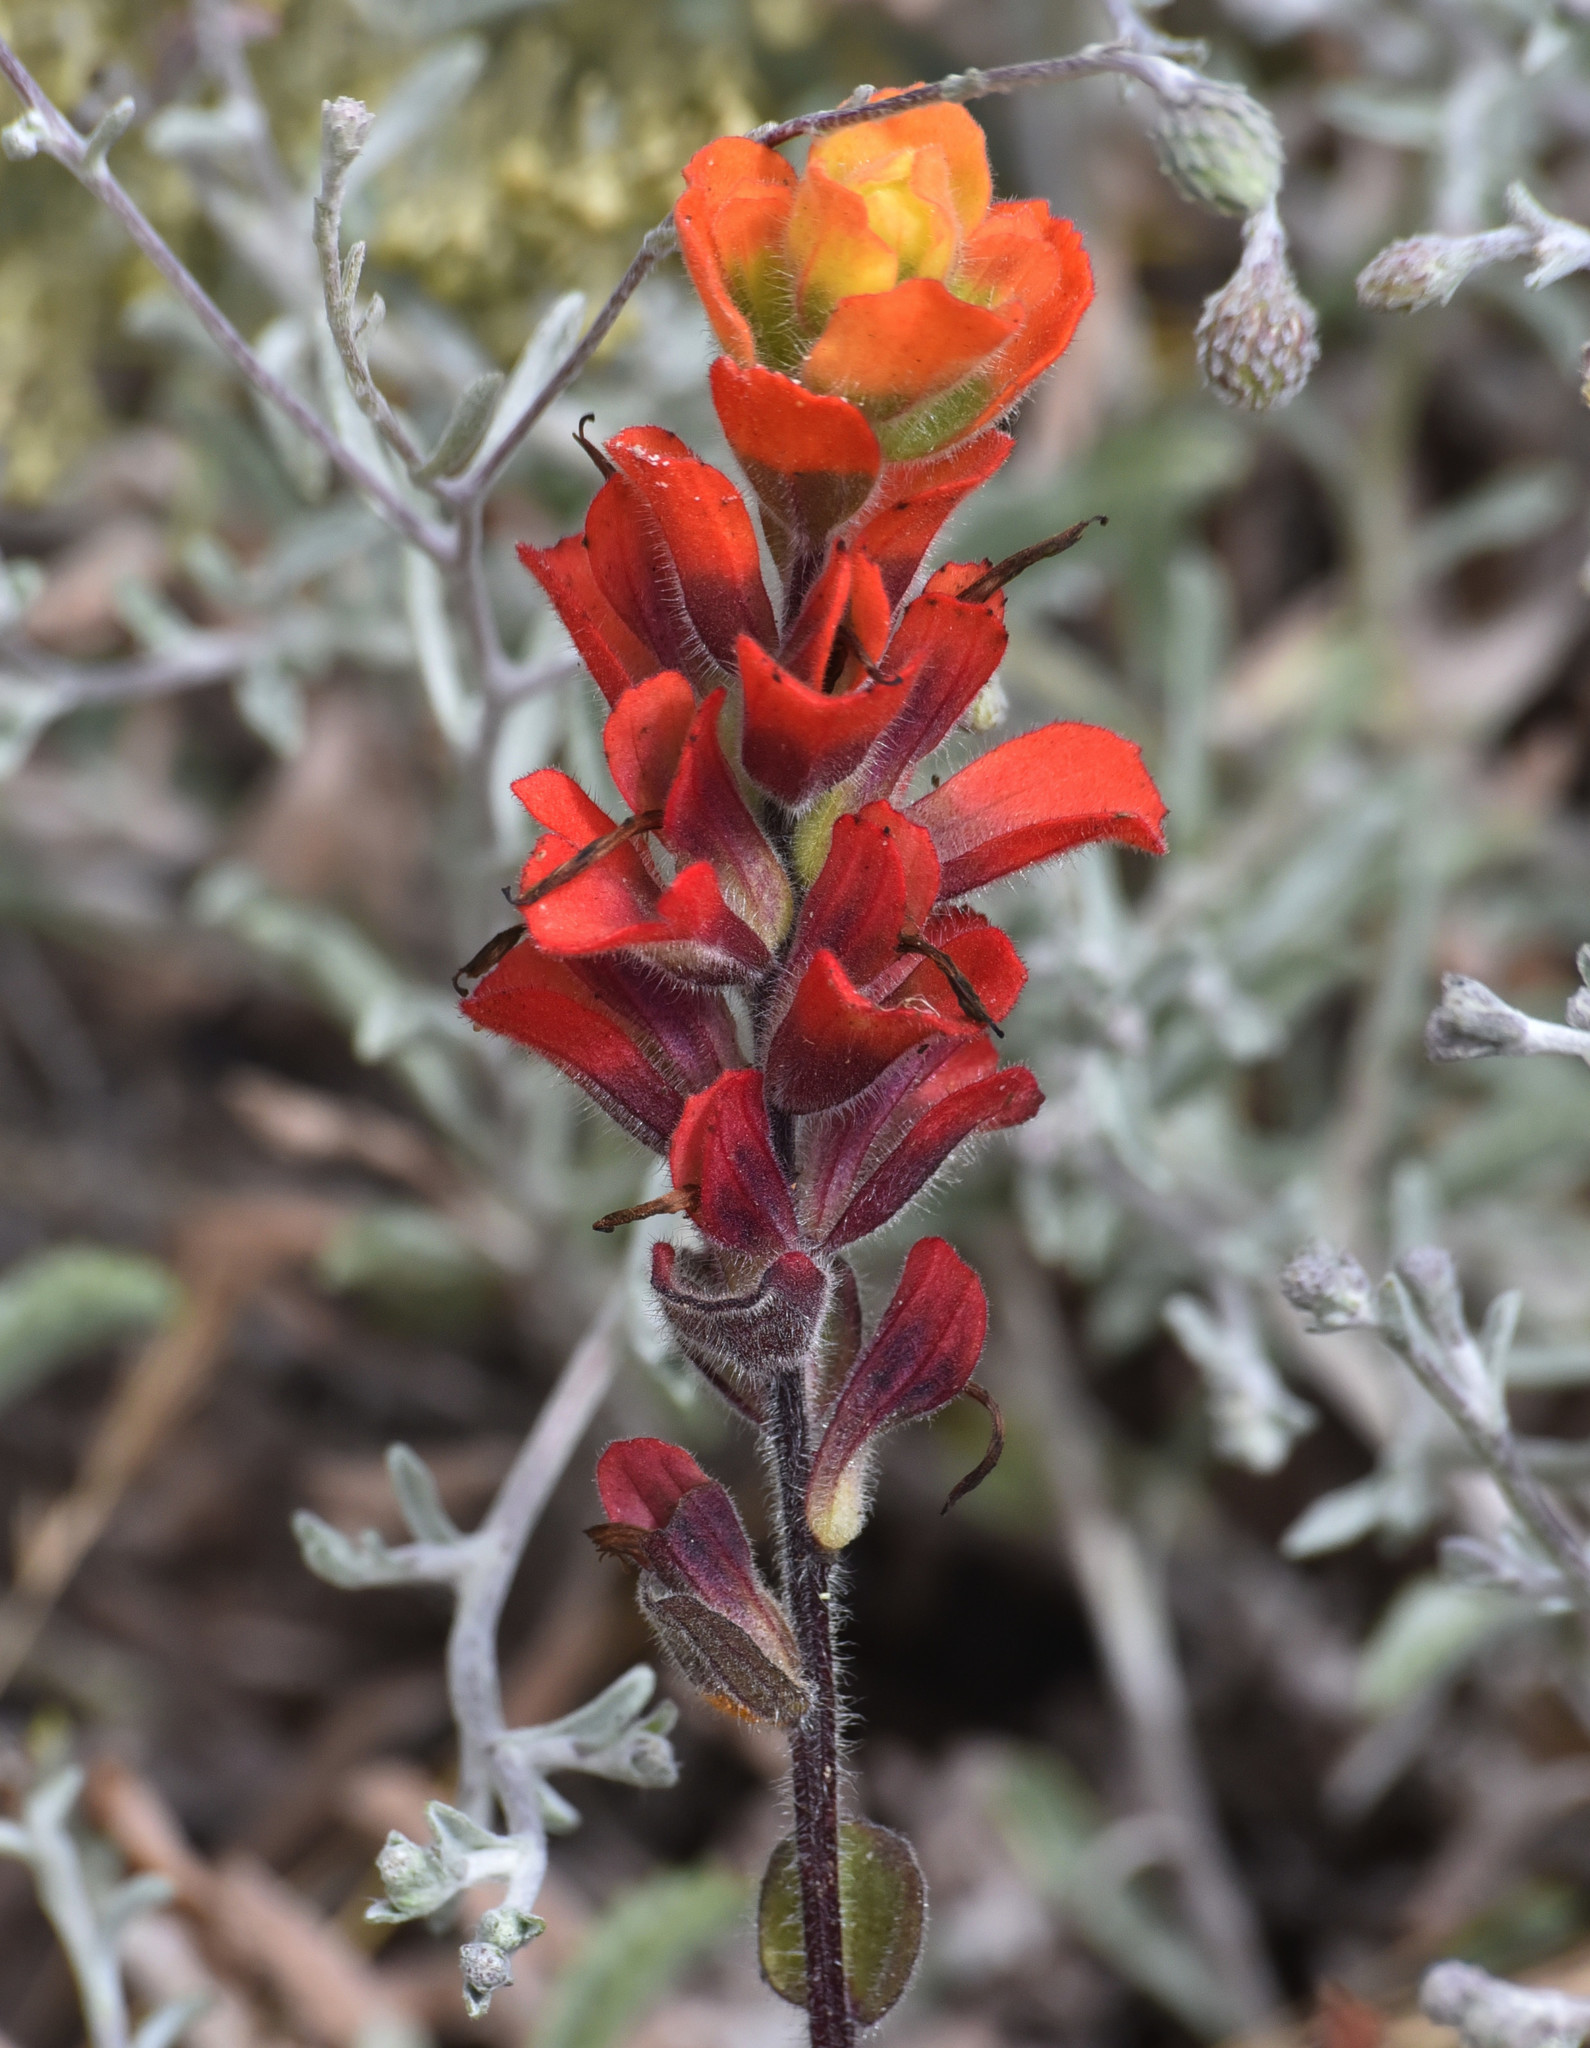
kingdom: Plantae
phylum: Tracheophyta
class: Magnoliopsida
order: Lamiales
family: Orobanchaceae
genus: Castilleja
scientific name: Castilleja latifolia
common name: Monterey indian paintbrush
